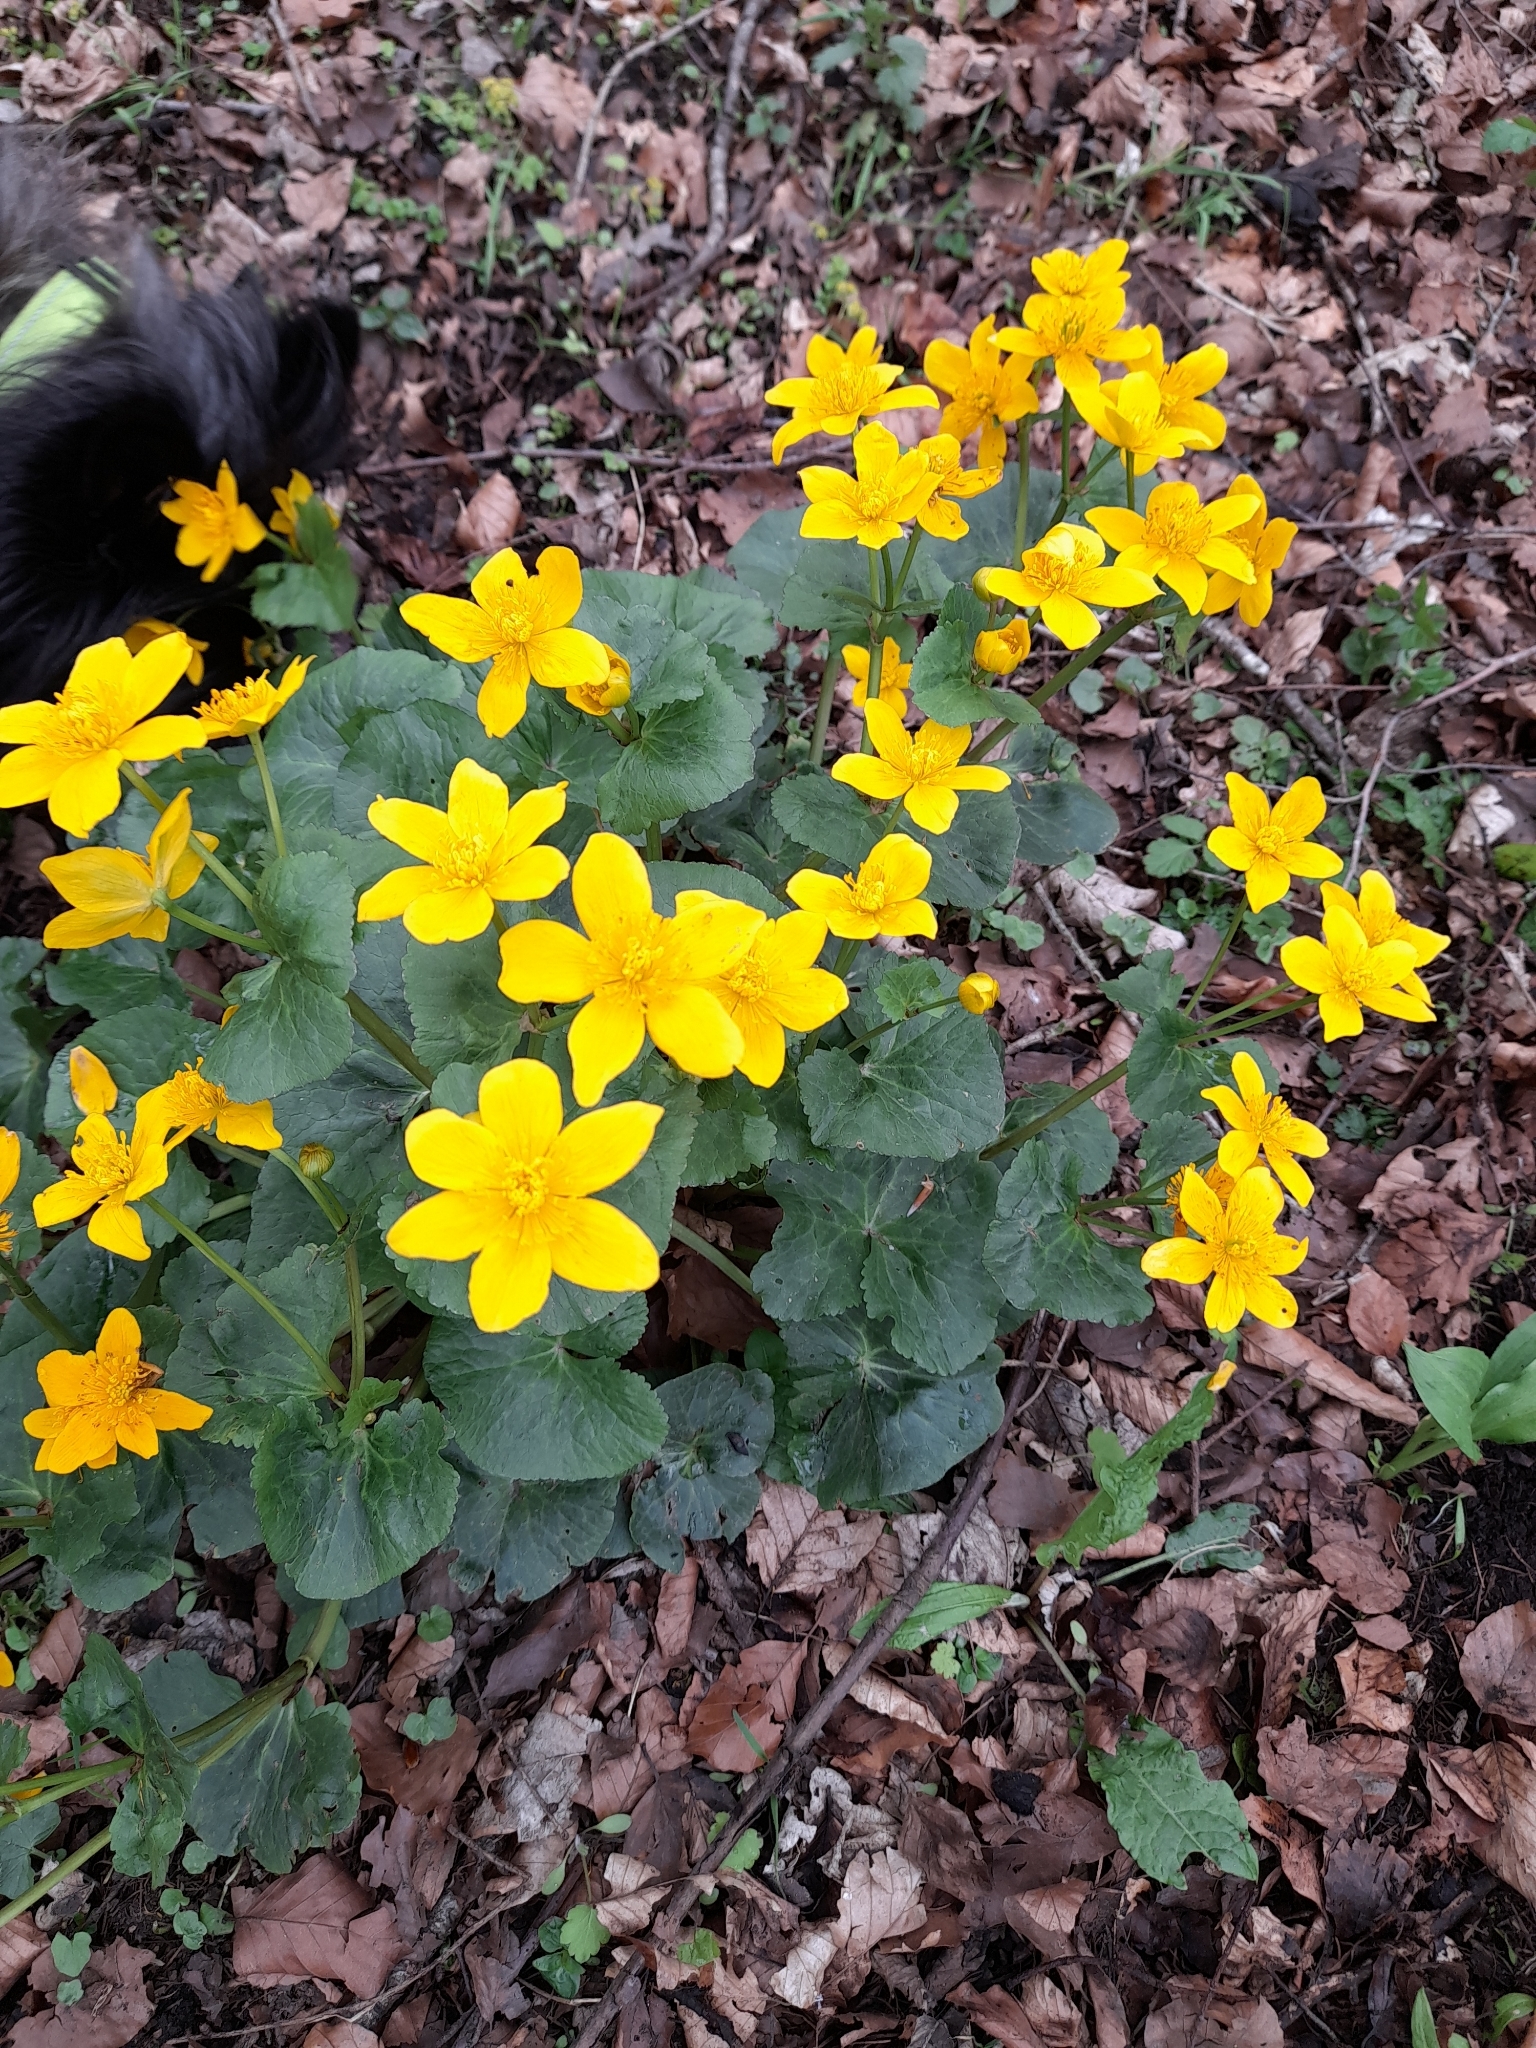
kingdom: Plantae
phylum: Tracheophyta
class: Magnoliopsida
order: Ranunculales
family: Ranunculaceae
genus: Caltha
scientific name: Caltha palustris
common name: Marsh marigold
